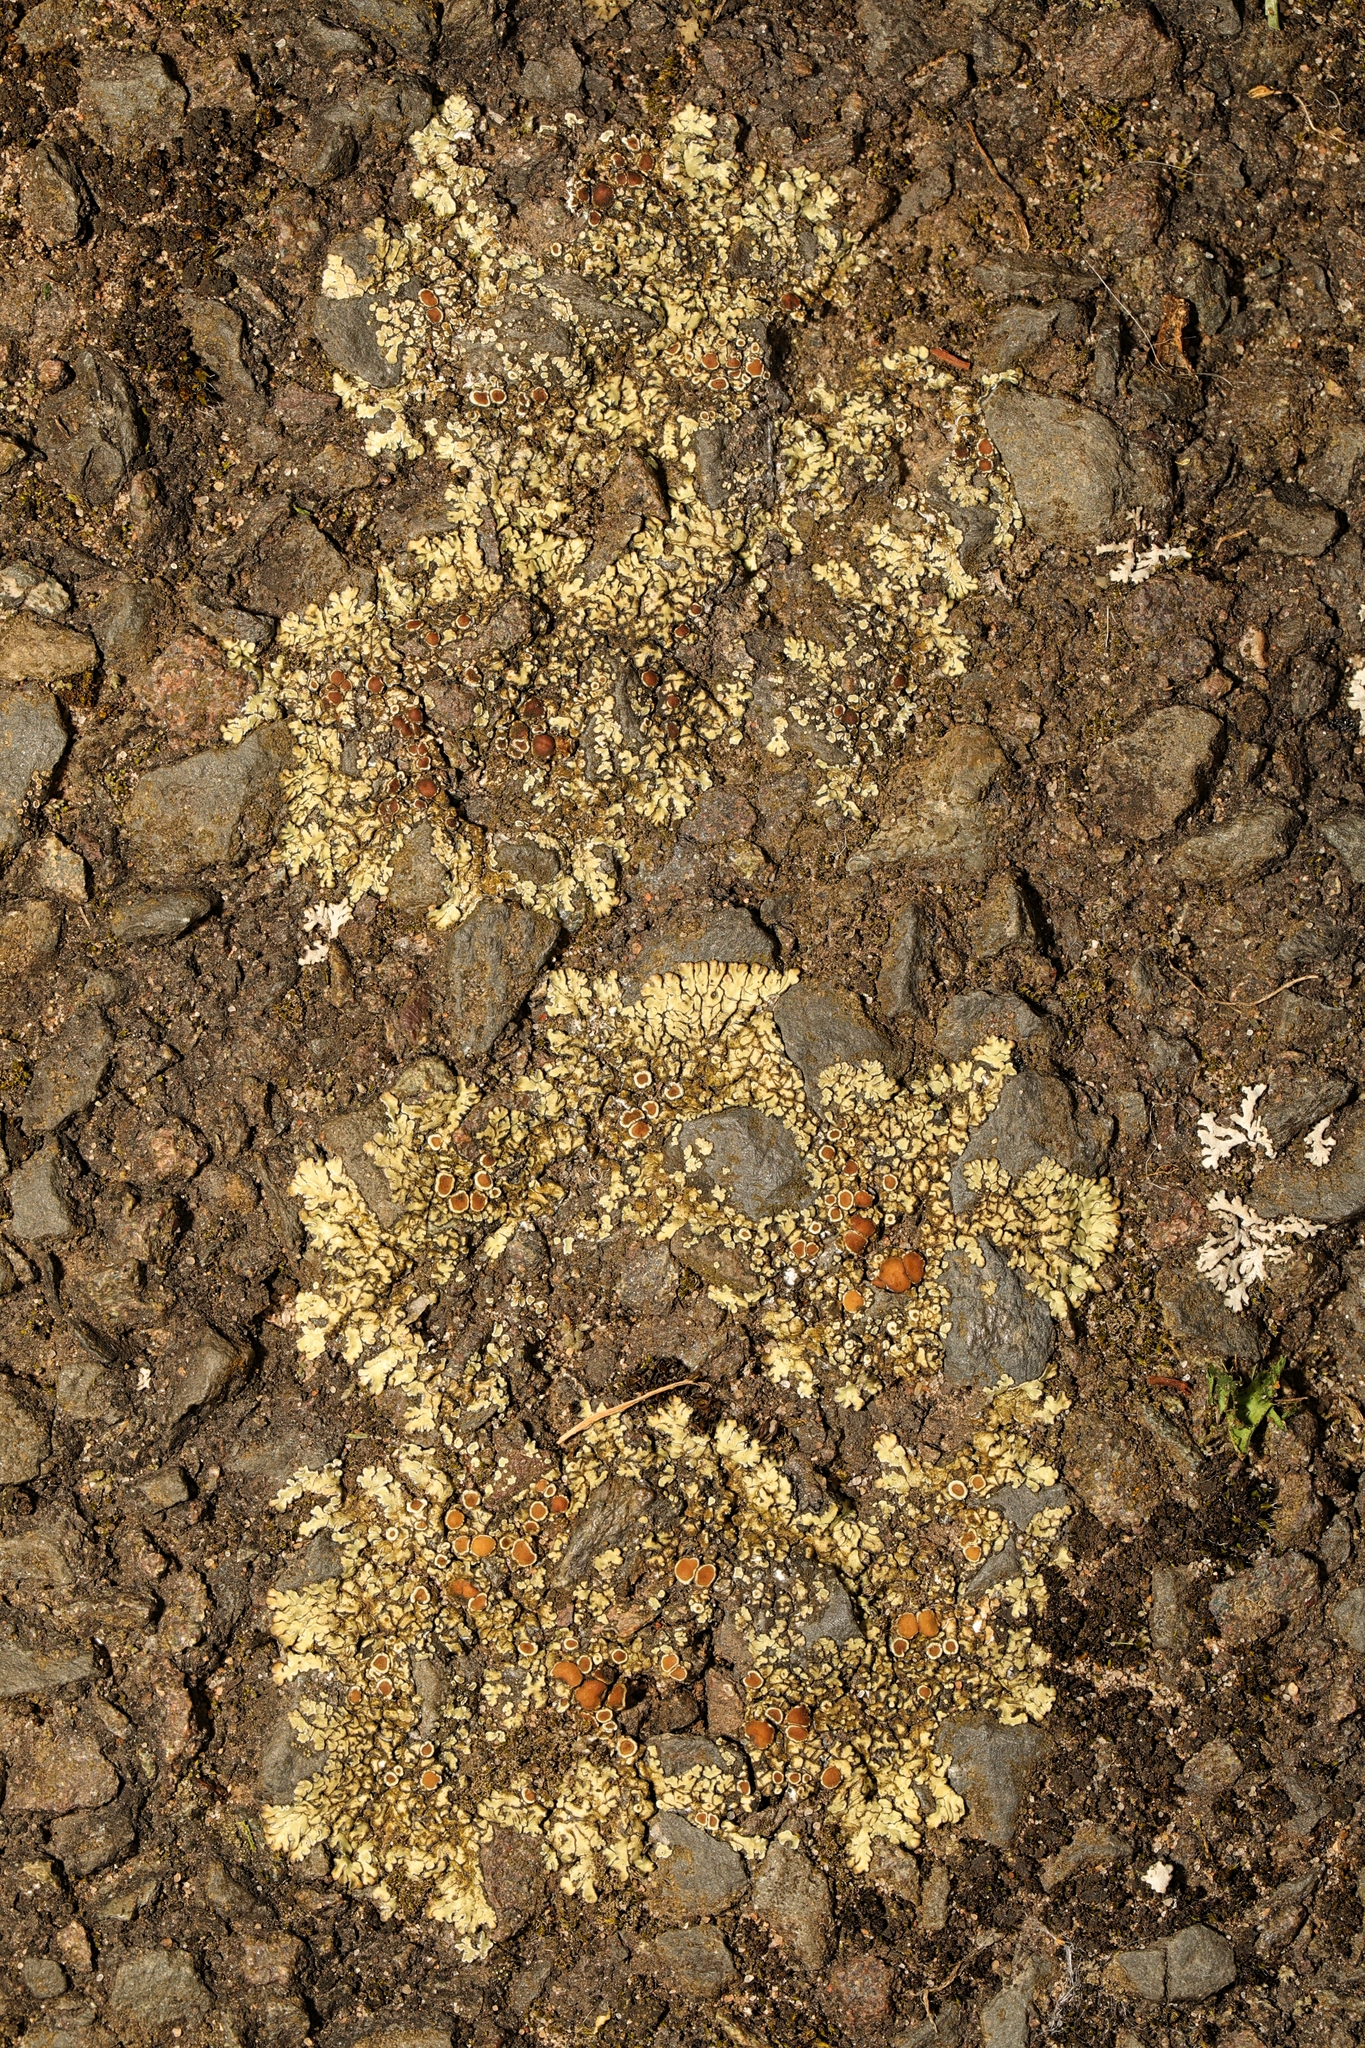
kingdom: Fungi
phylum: Ascomycota
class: Lecanoromycetes
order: Lecanorales
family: Lecanoraceae
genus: Protoparmeliopsis
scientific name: Protoparmeliopsis muralis
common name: Stonewall rim lichen
